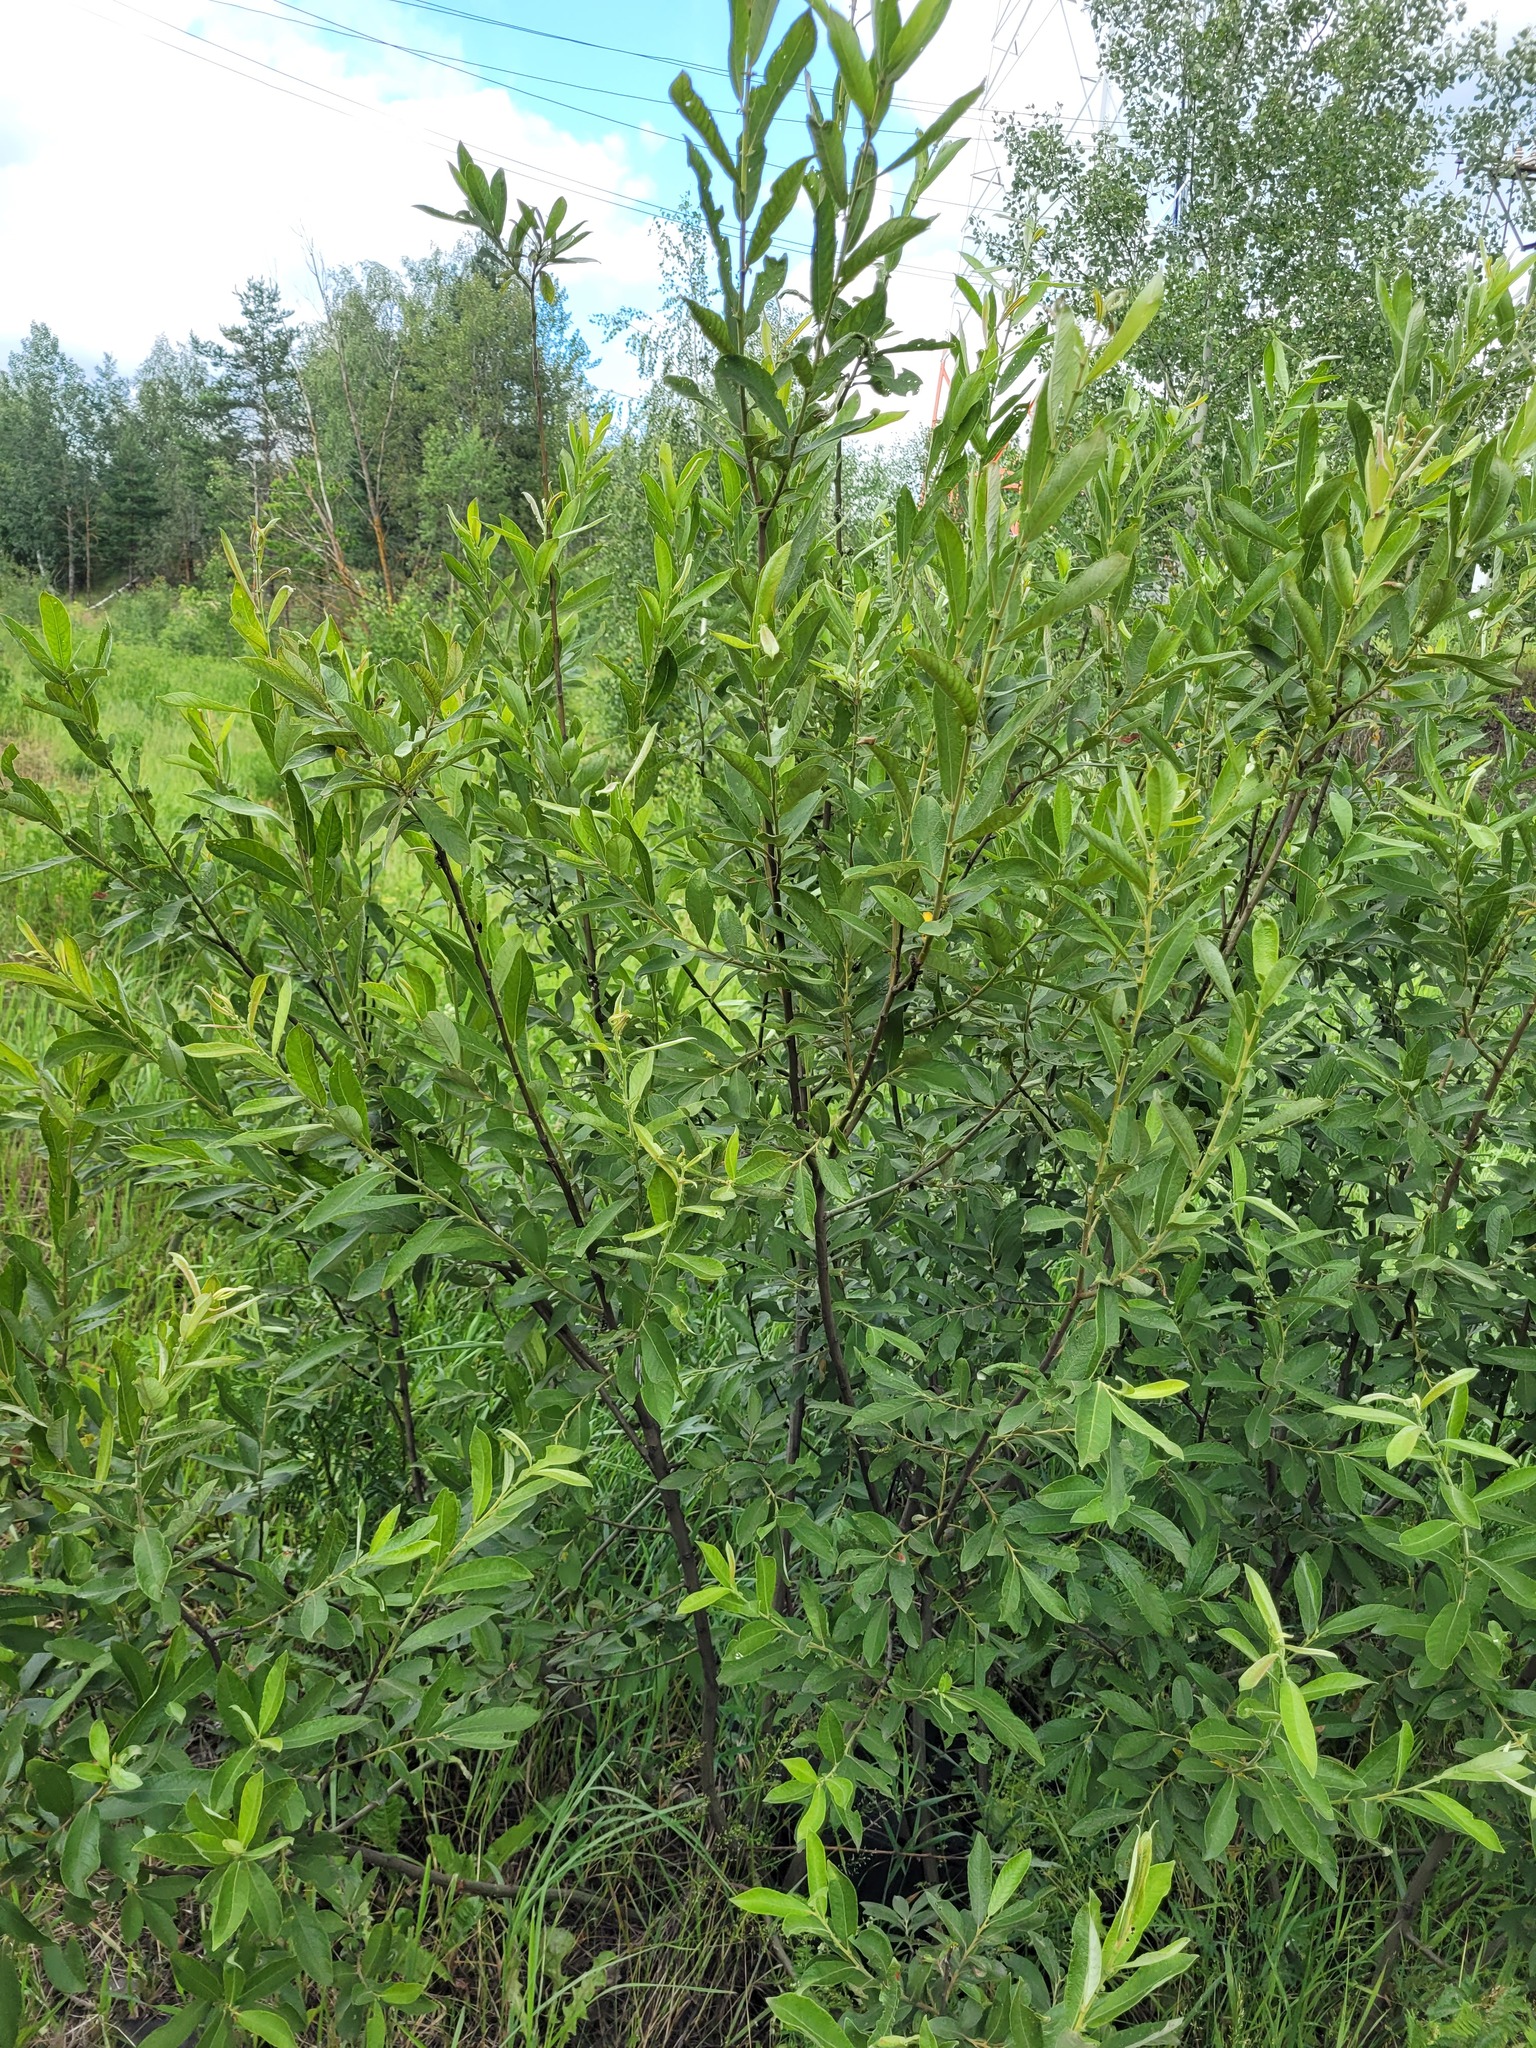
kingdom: Plantae
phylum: Tracheophyta
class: Magnoliopsida
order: Malpighiales
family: Salicaceae
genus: Salix
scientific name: Salix cinerea
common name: Common sallow
